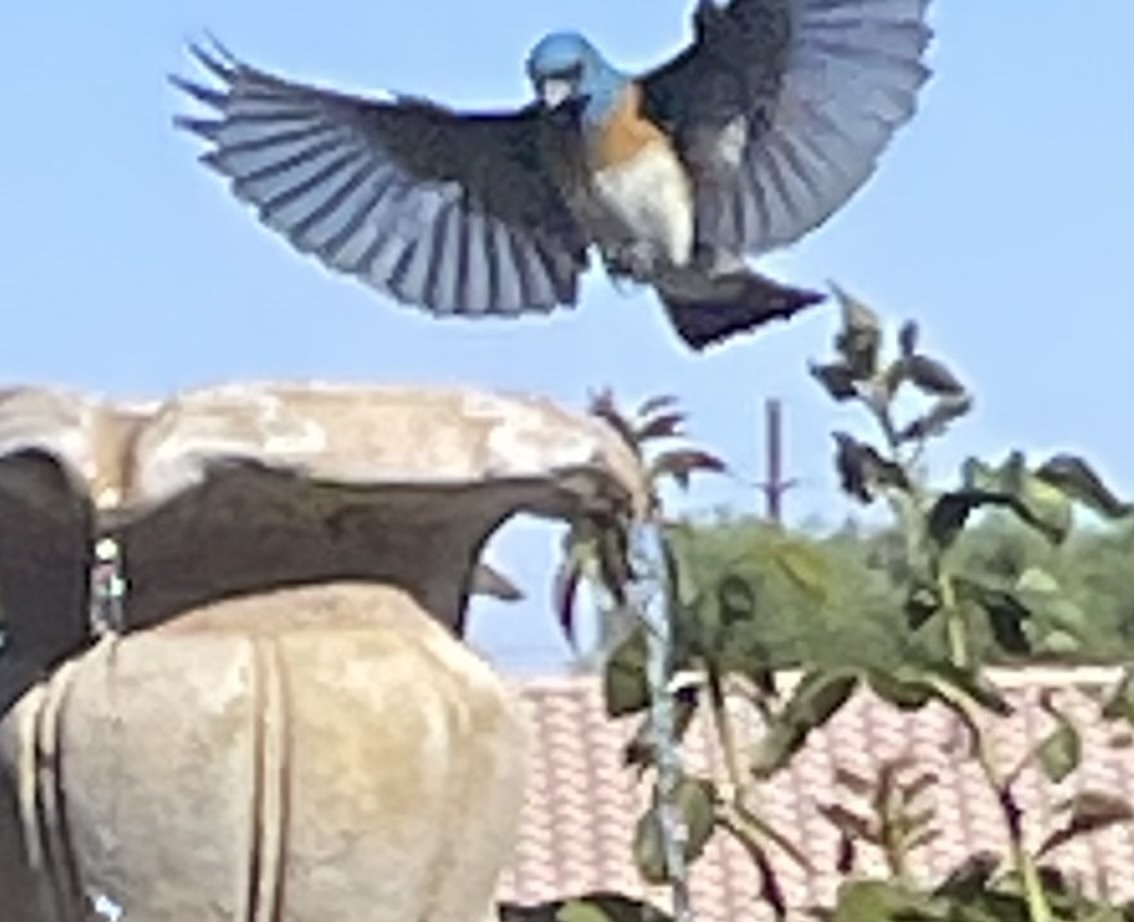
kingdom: Animalia
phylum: Chordata
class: Aves
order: Passeriformes
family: Cardinalidae
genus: Passerina
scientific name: Passerina amoena
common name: Lazuli bunting
